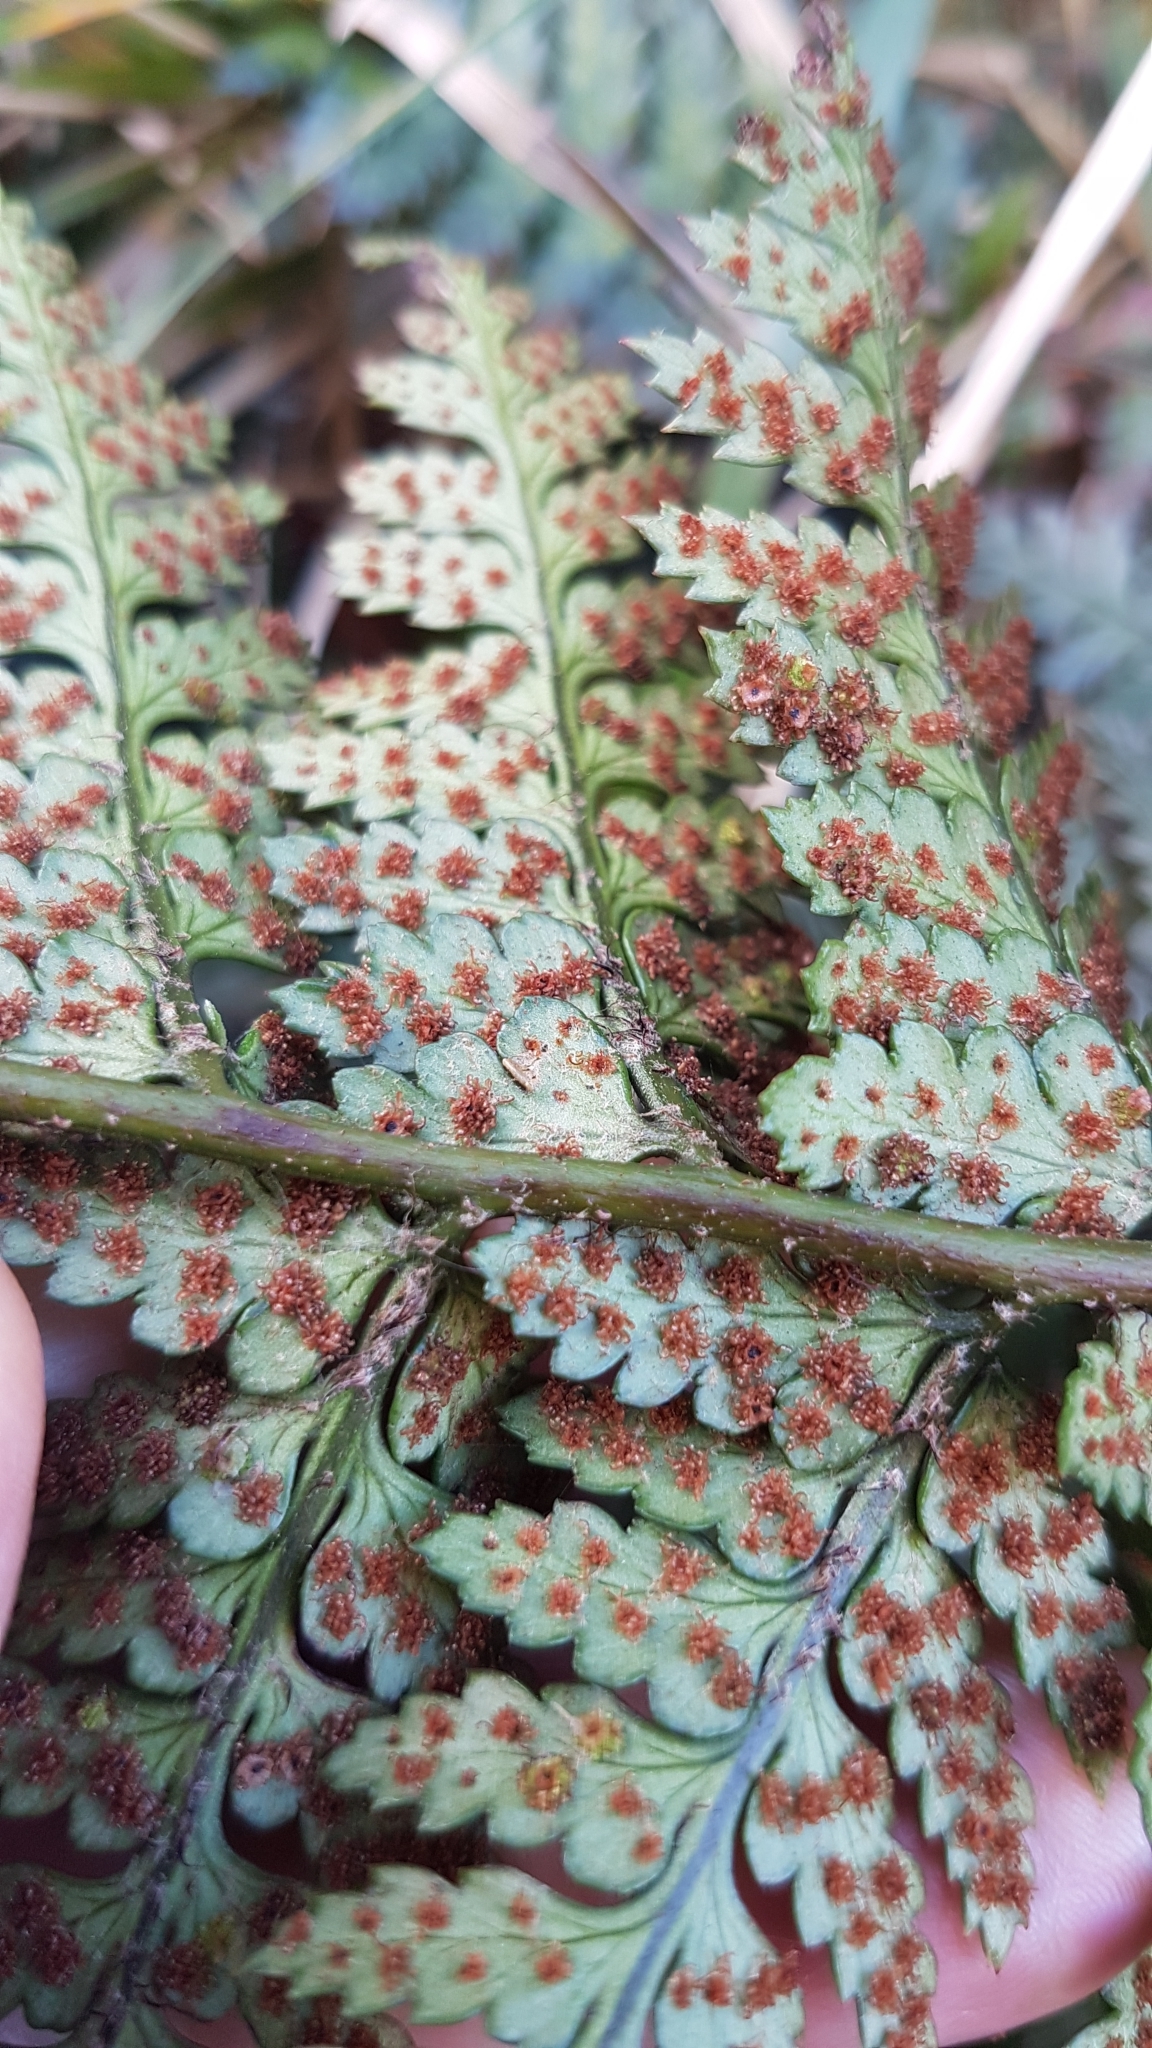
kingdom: Plantae
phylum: Tracheophyta
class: Polypodiopsida
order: Polypodiales
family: Dryopteridaceae
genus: Polystichum
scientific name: Polystichum neozelandicum
